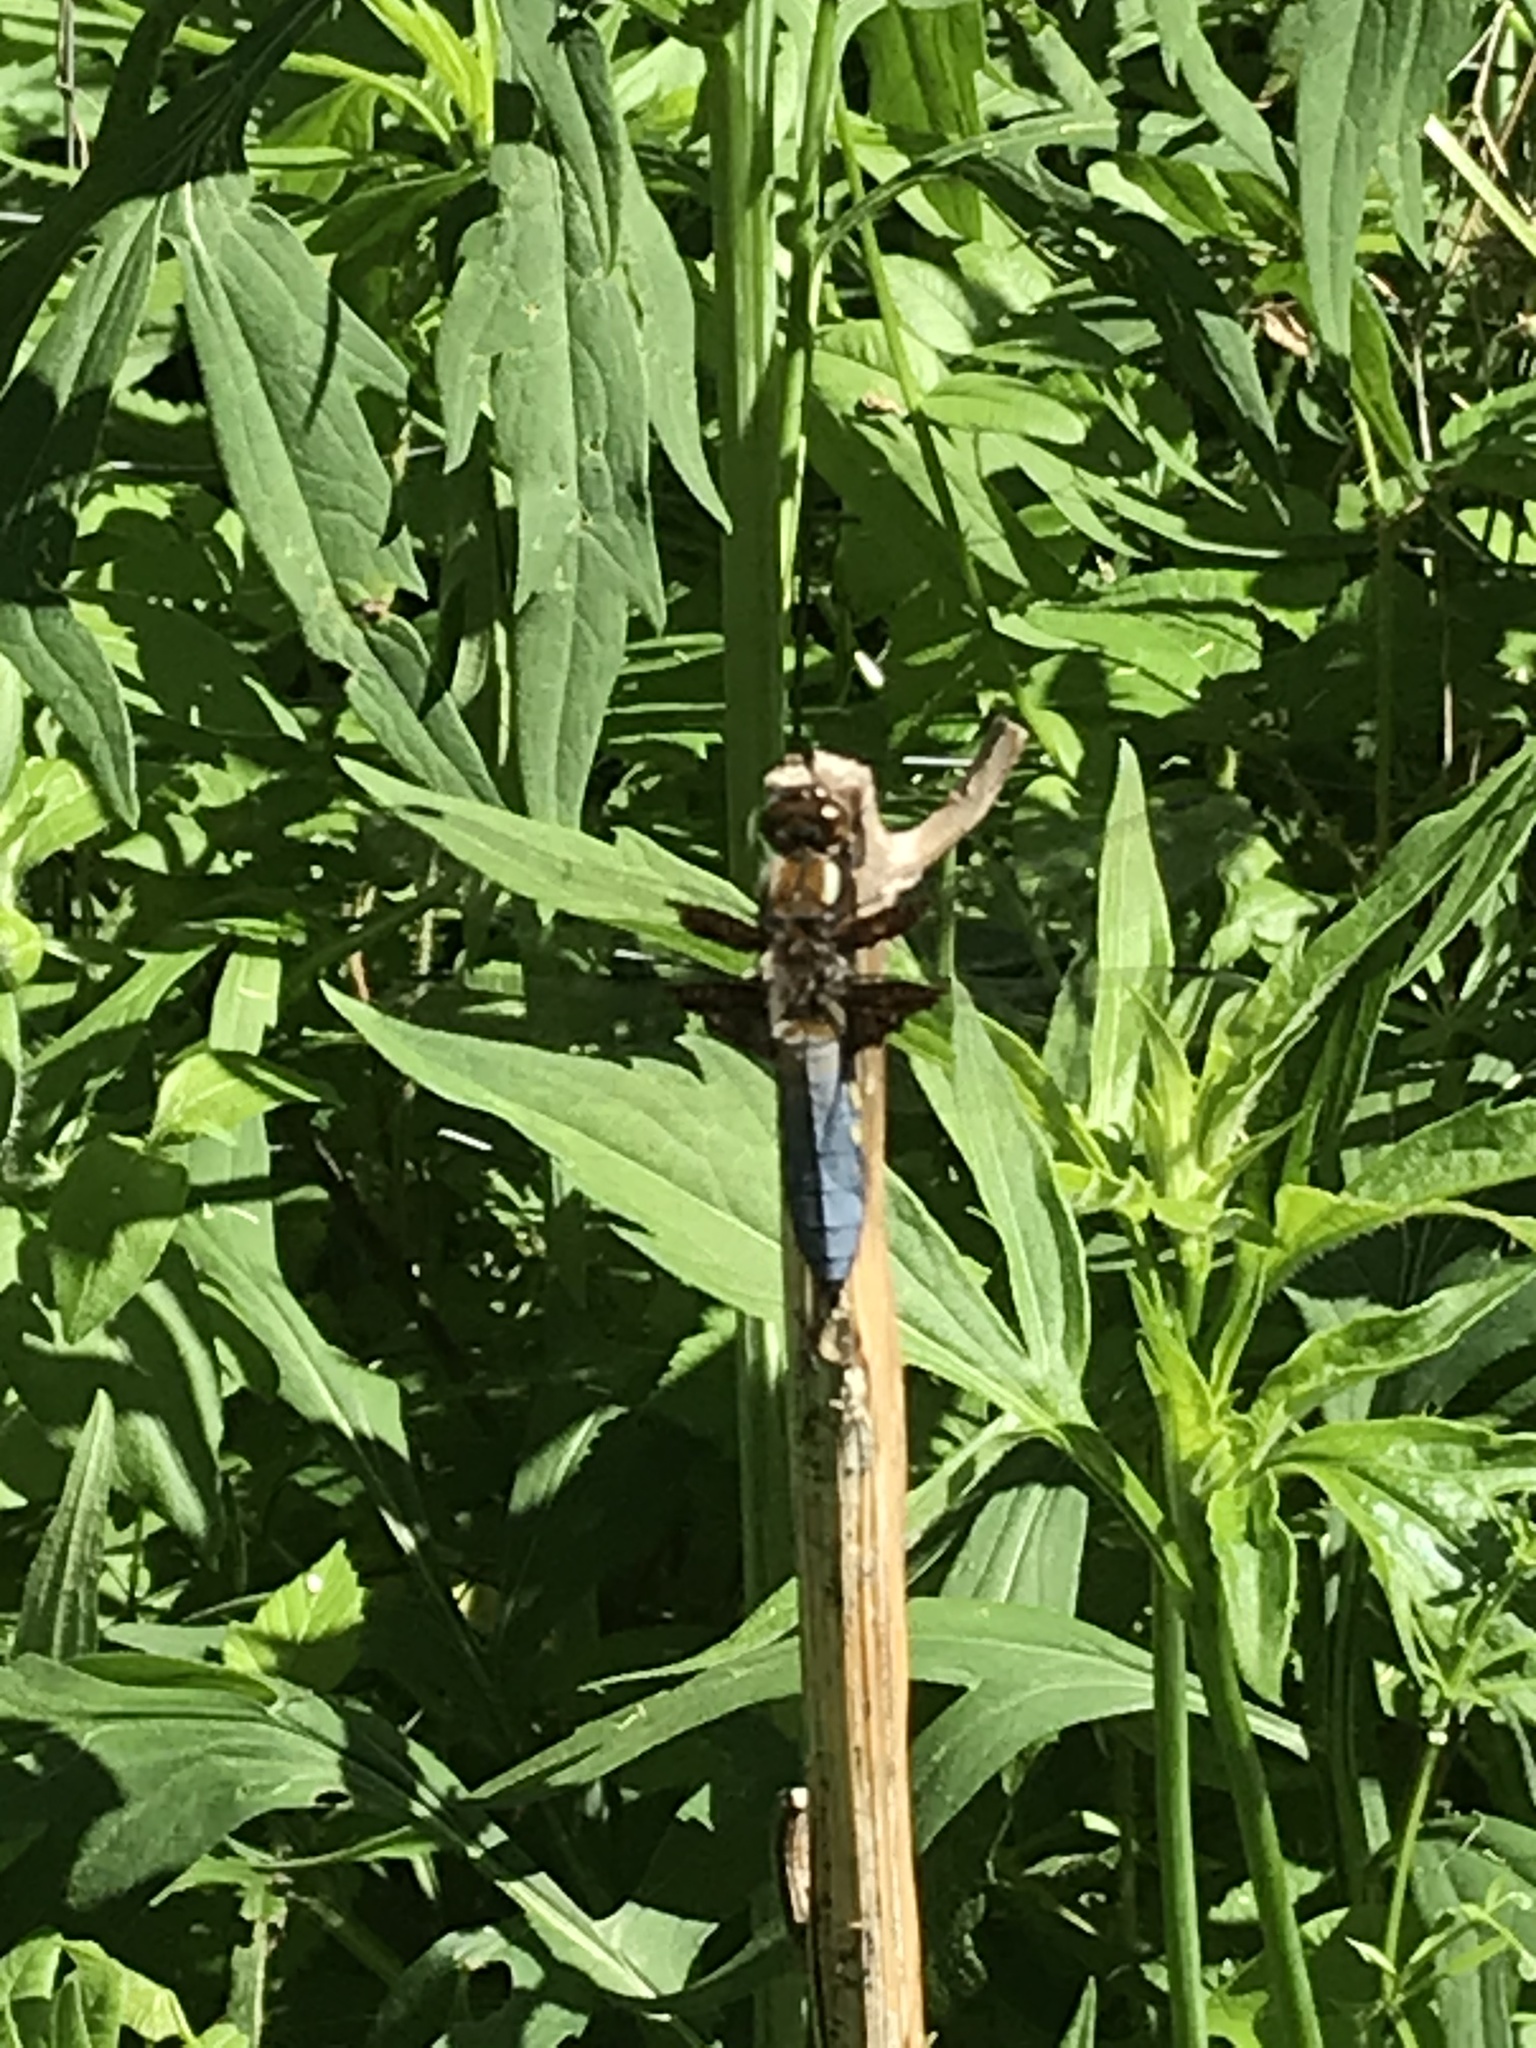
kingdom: Animalia
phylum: Arthropoda
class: Insecta
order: Odonata
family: Libellulidae
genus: Libellula
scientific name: Libellula depressa
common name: Broad-bodied chaser
